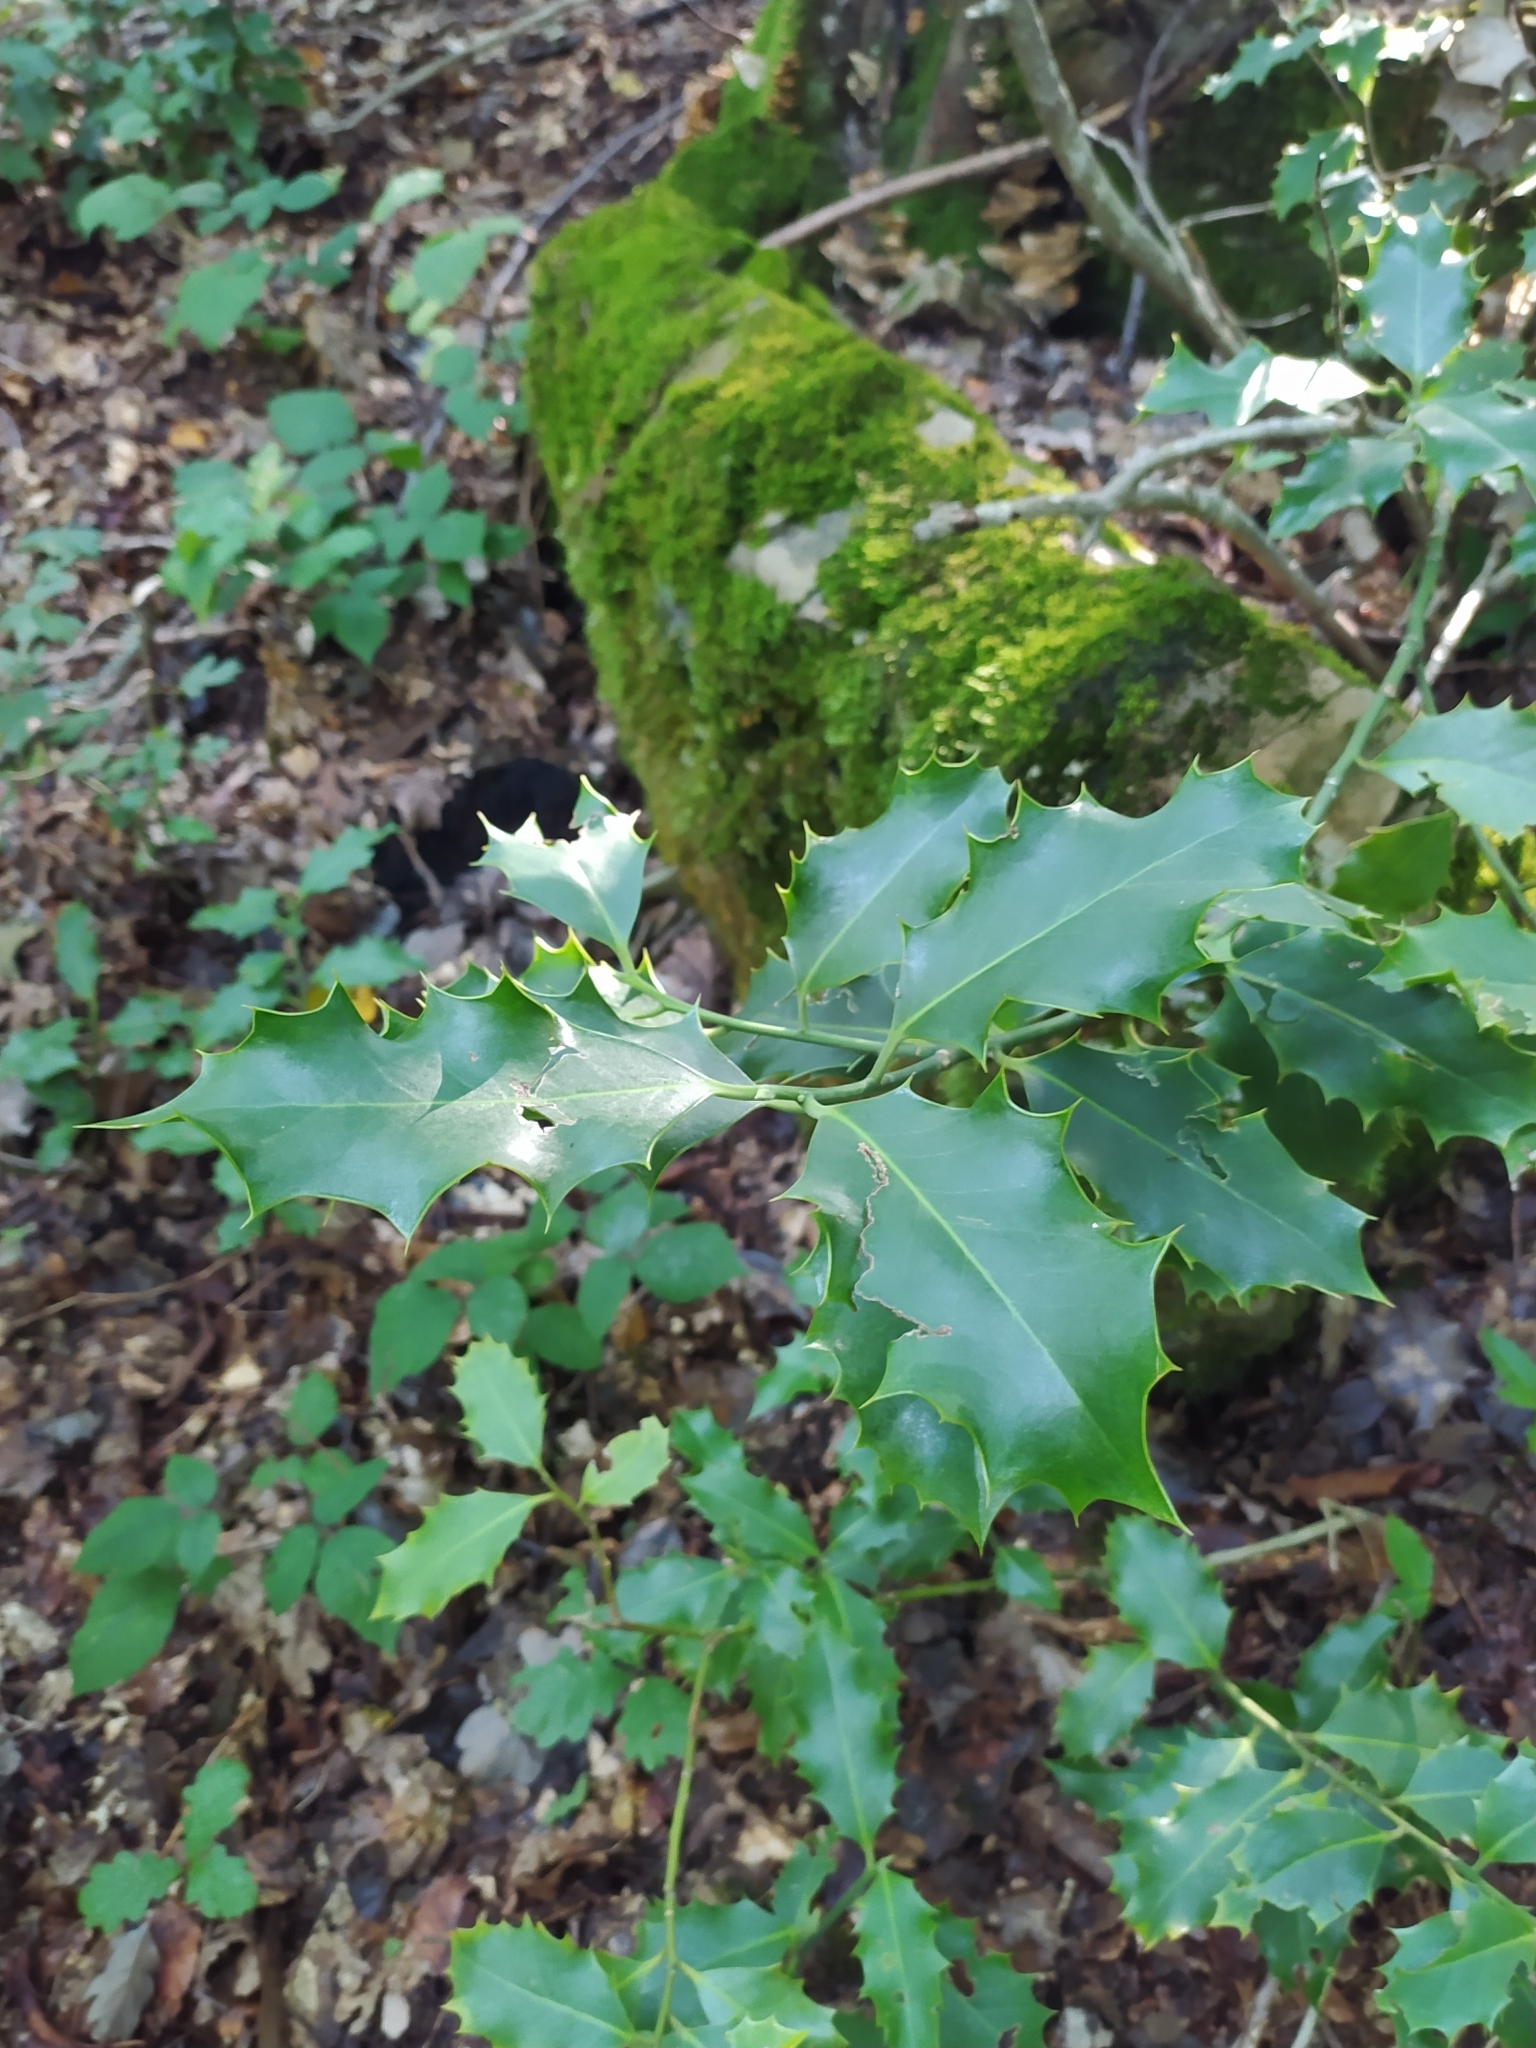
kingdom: Plantae
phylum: Tracheophyta
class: Magnoliopsida
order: Aquifoliales
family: Aquifoliaceae
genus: Ilex
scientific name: Ilex aquifolium
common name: English holly
